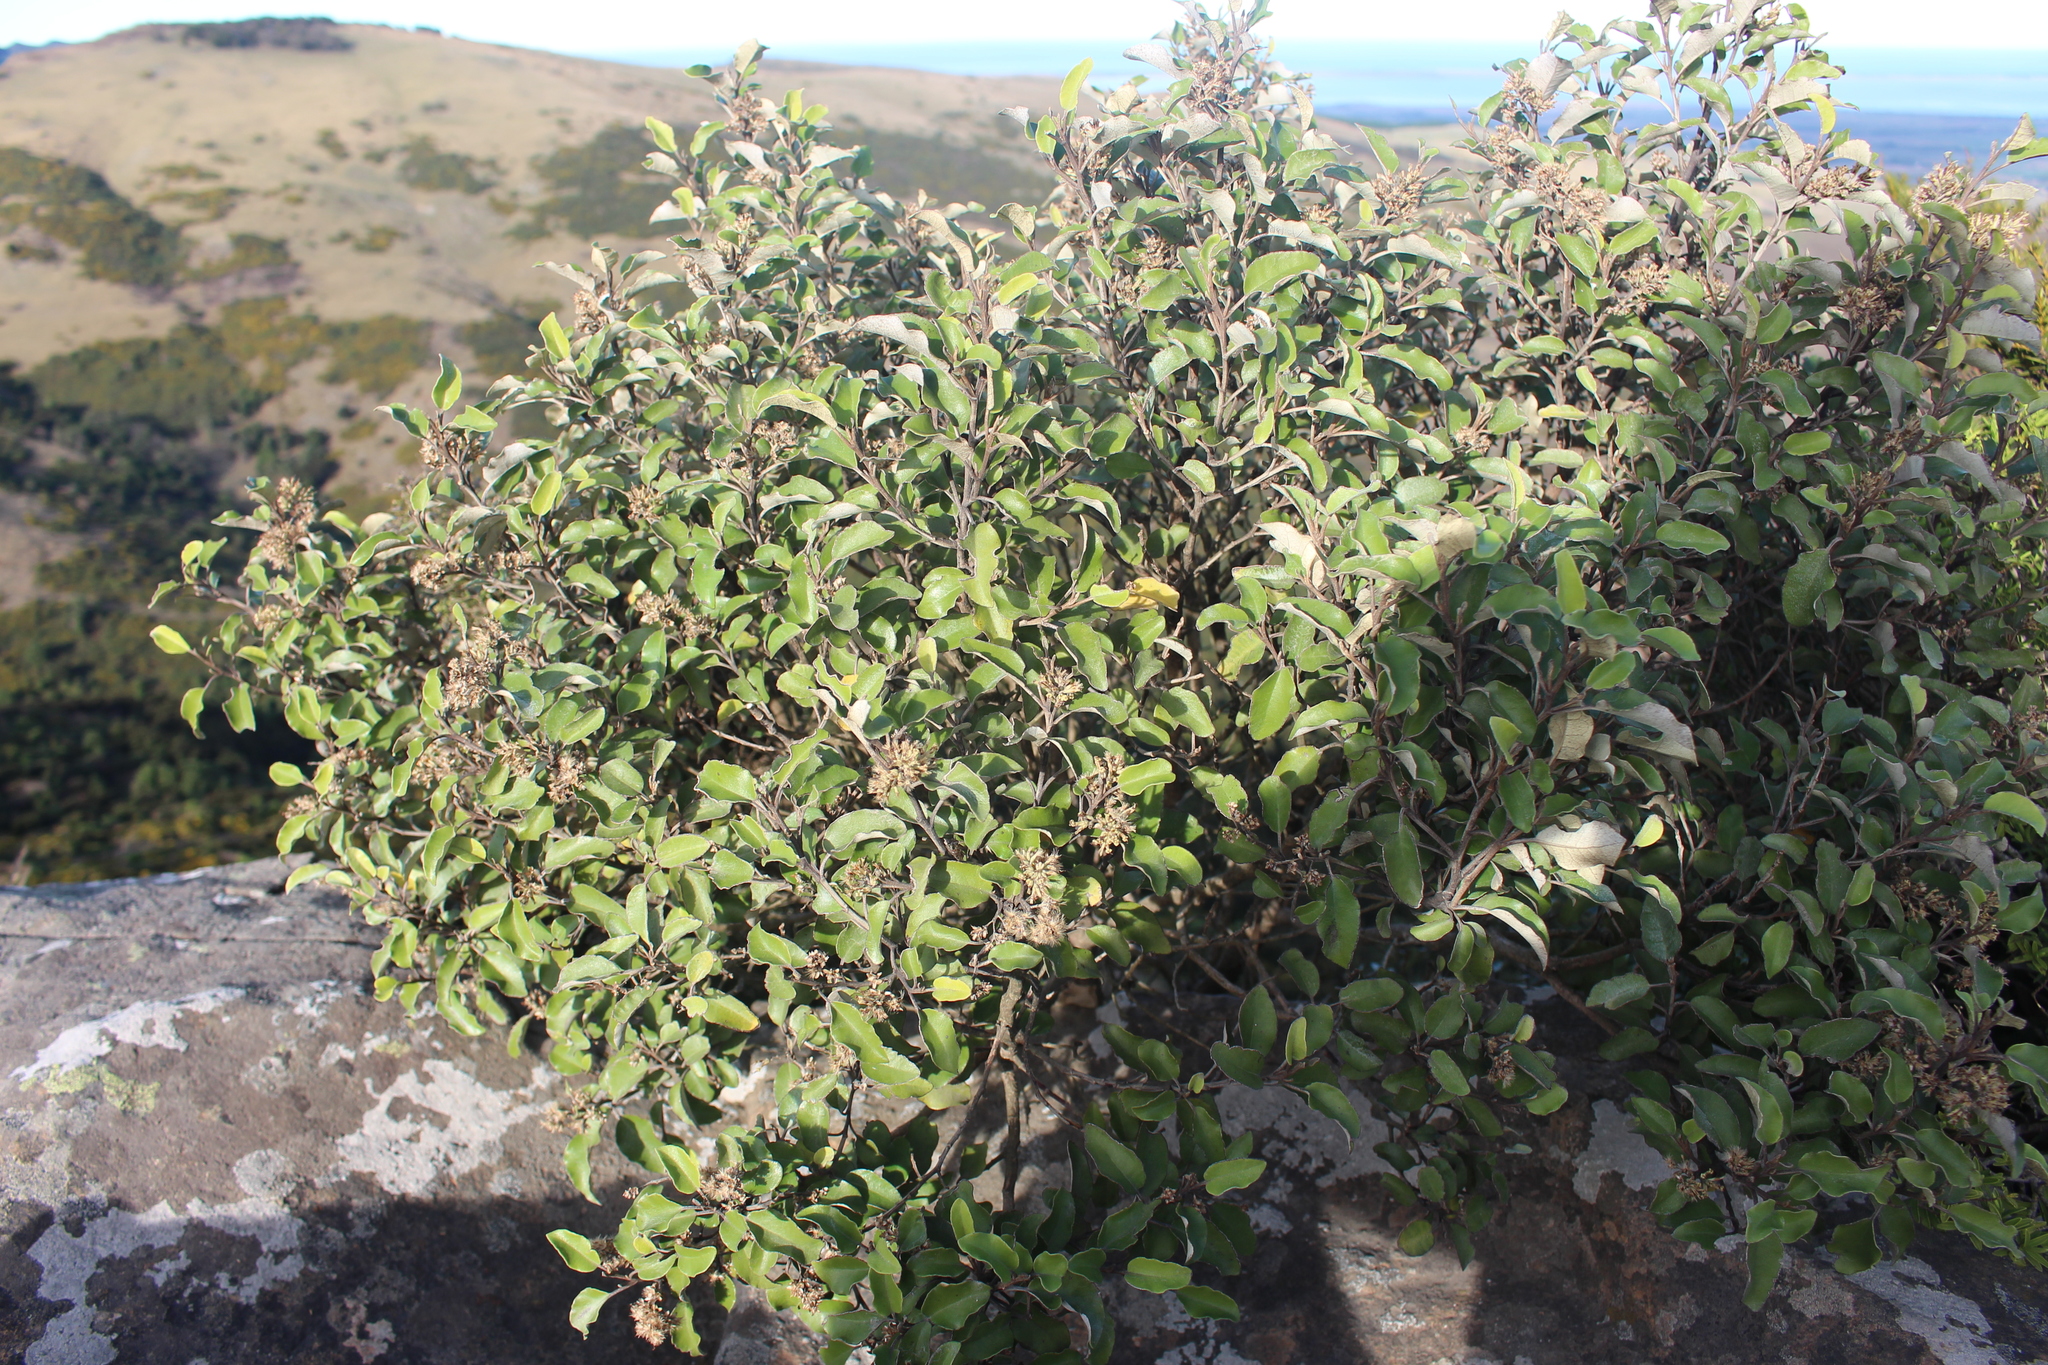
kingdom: Plantae
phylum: Tracheophyta
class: Magnoliopsida
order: Asterales
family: Asteraceae
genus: Olearia
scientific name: Olearia paniculata
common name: Akiraho
